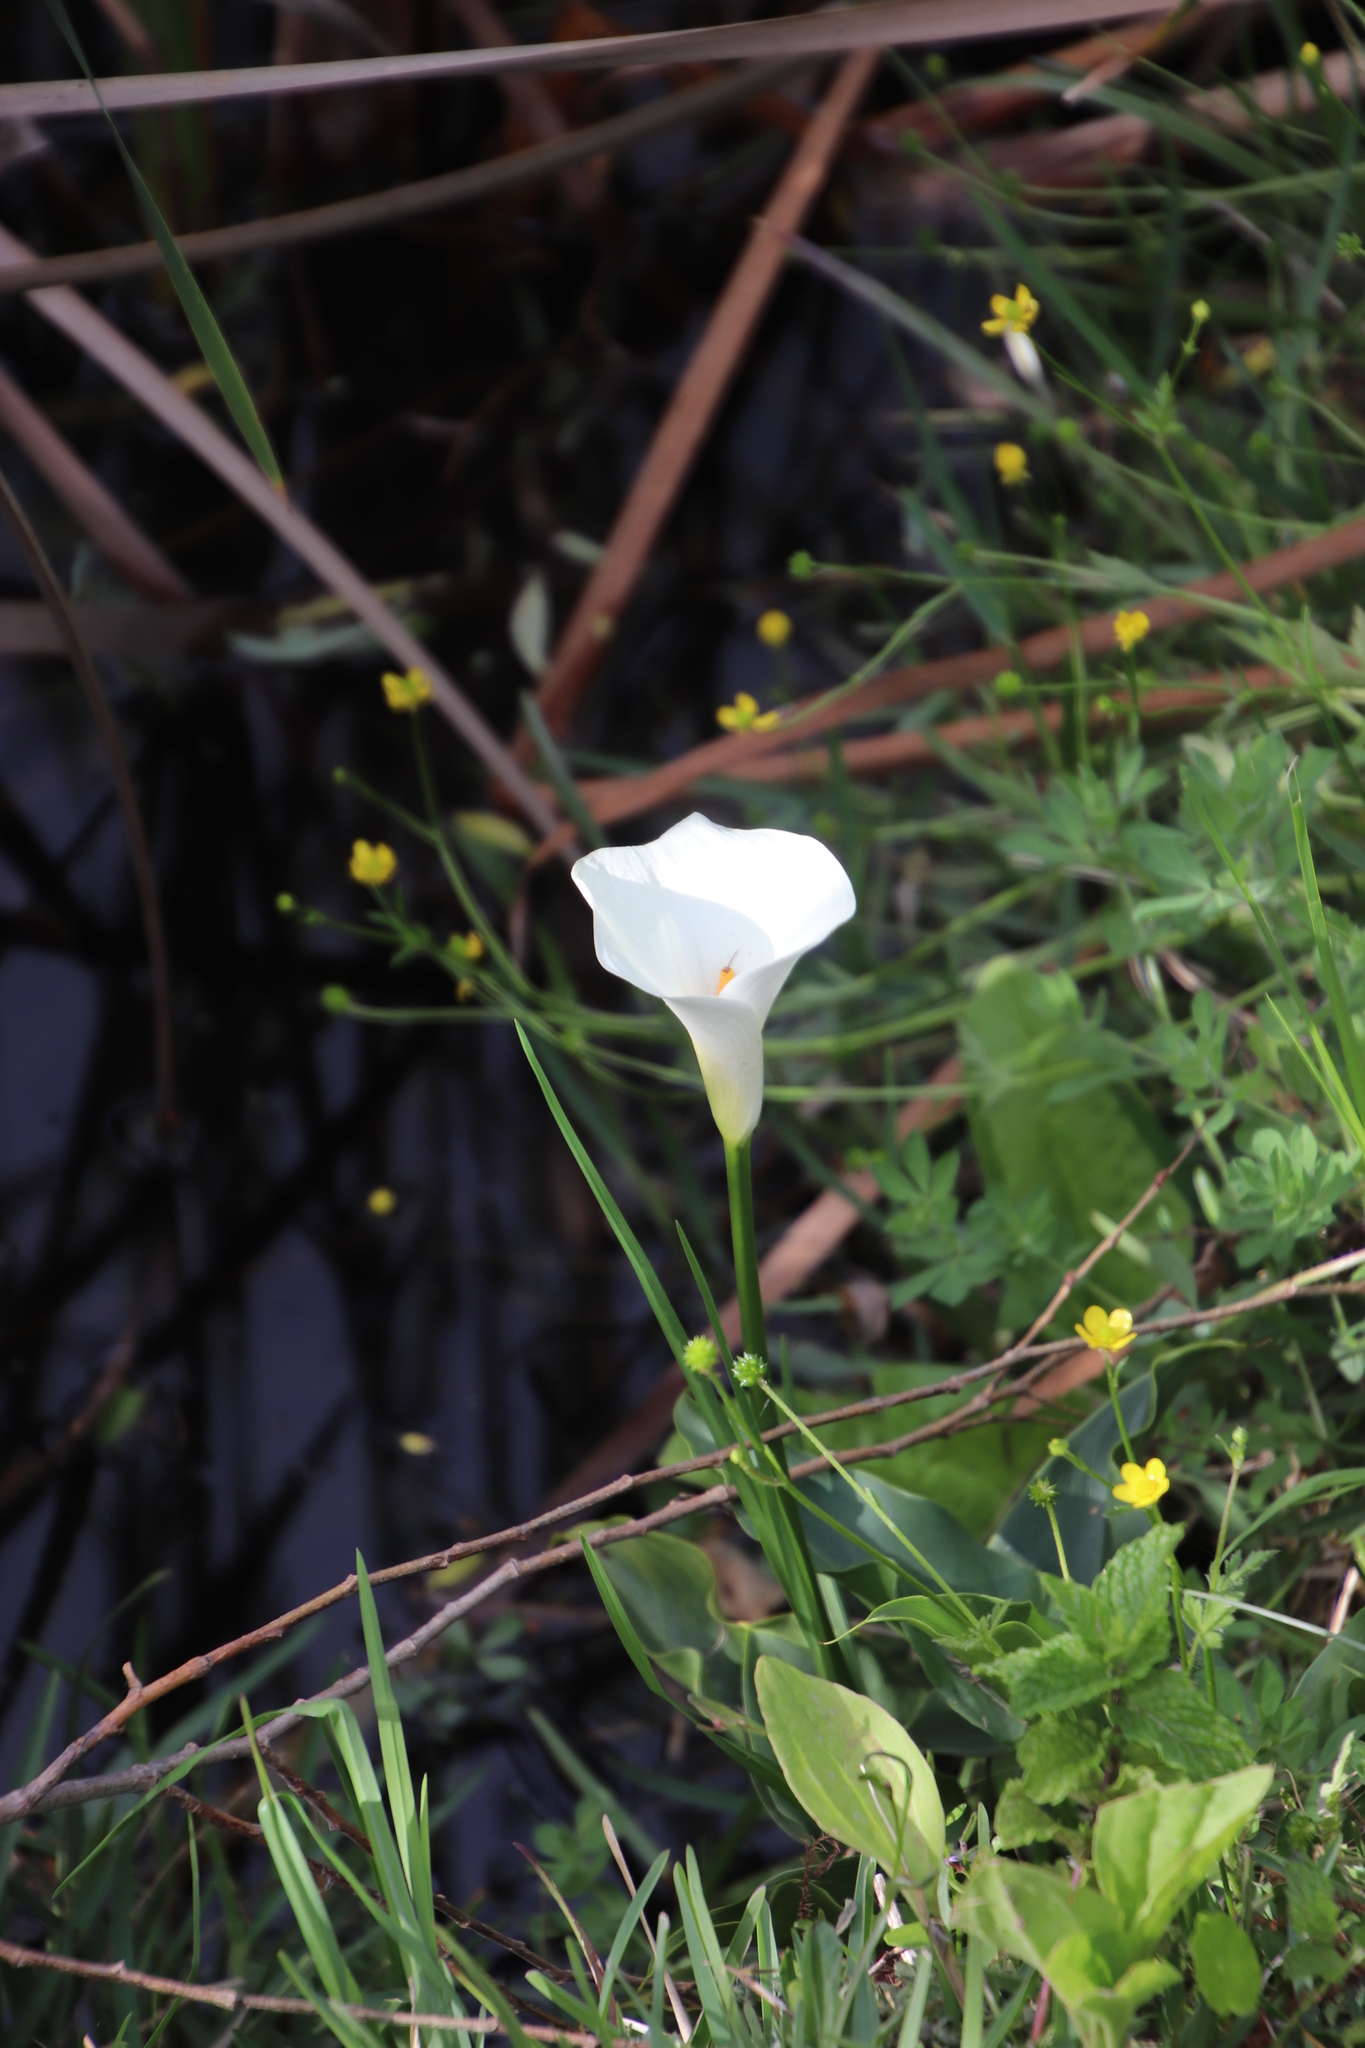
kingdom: Plantae
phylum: Tracheophyta
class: Liliopsida
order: Alismatales
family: Araceae
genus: Zantedeschia
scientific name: Zantedeschia aethiopica
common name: Altar-lily
